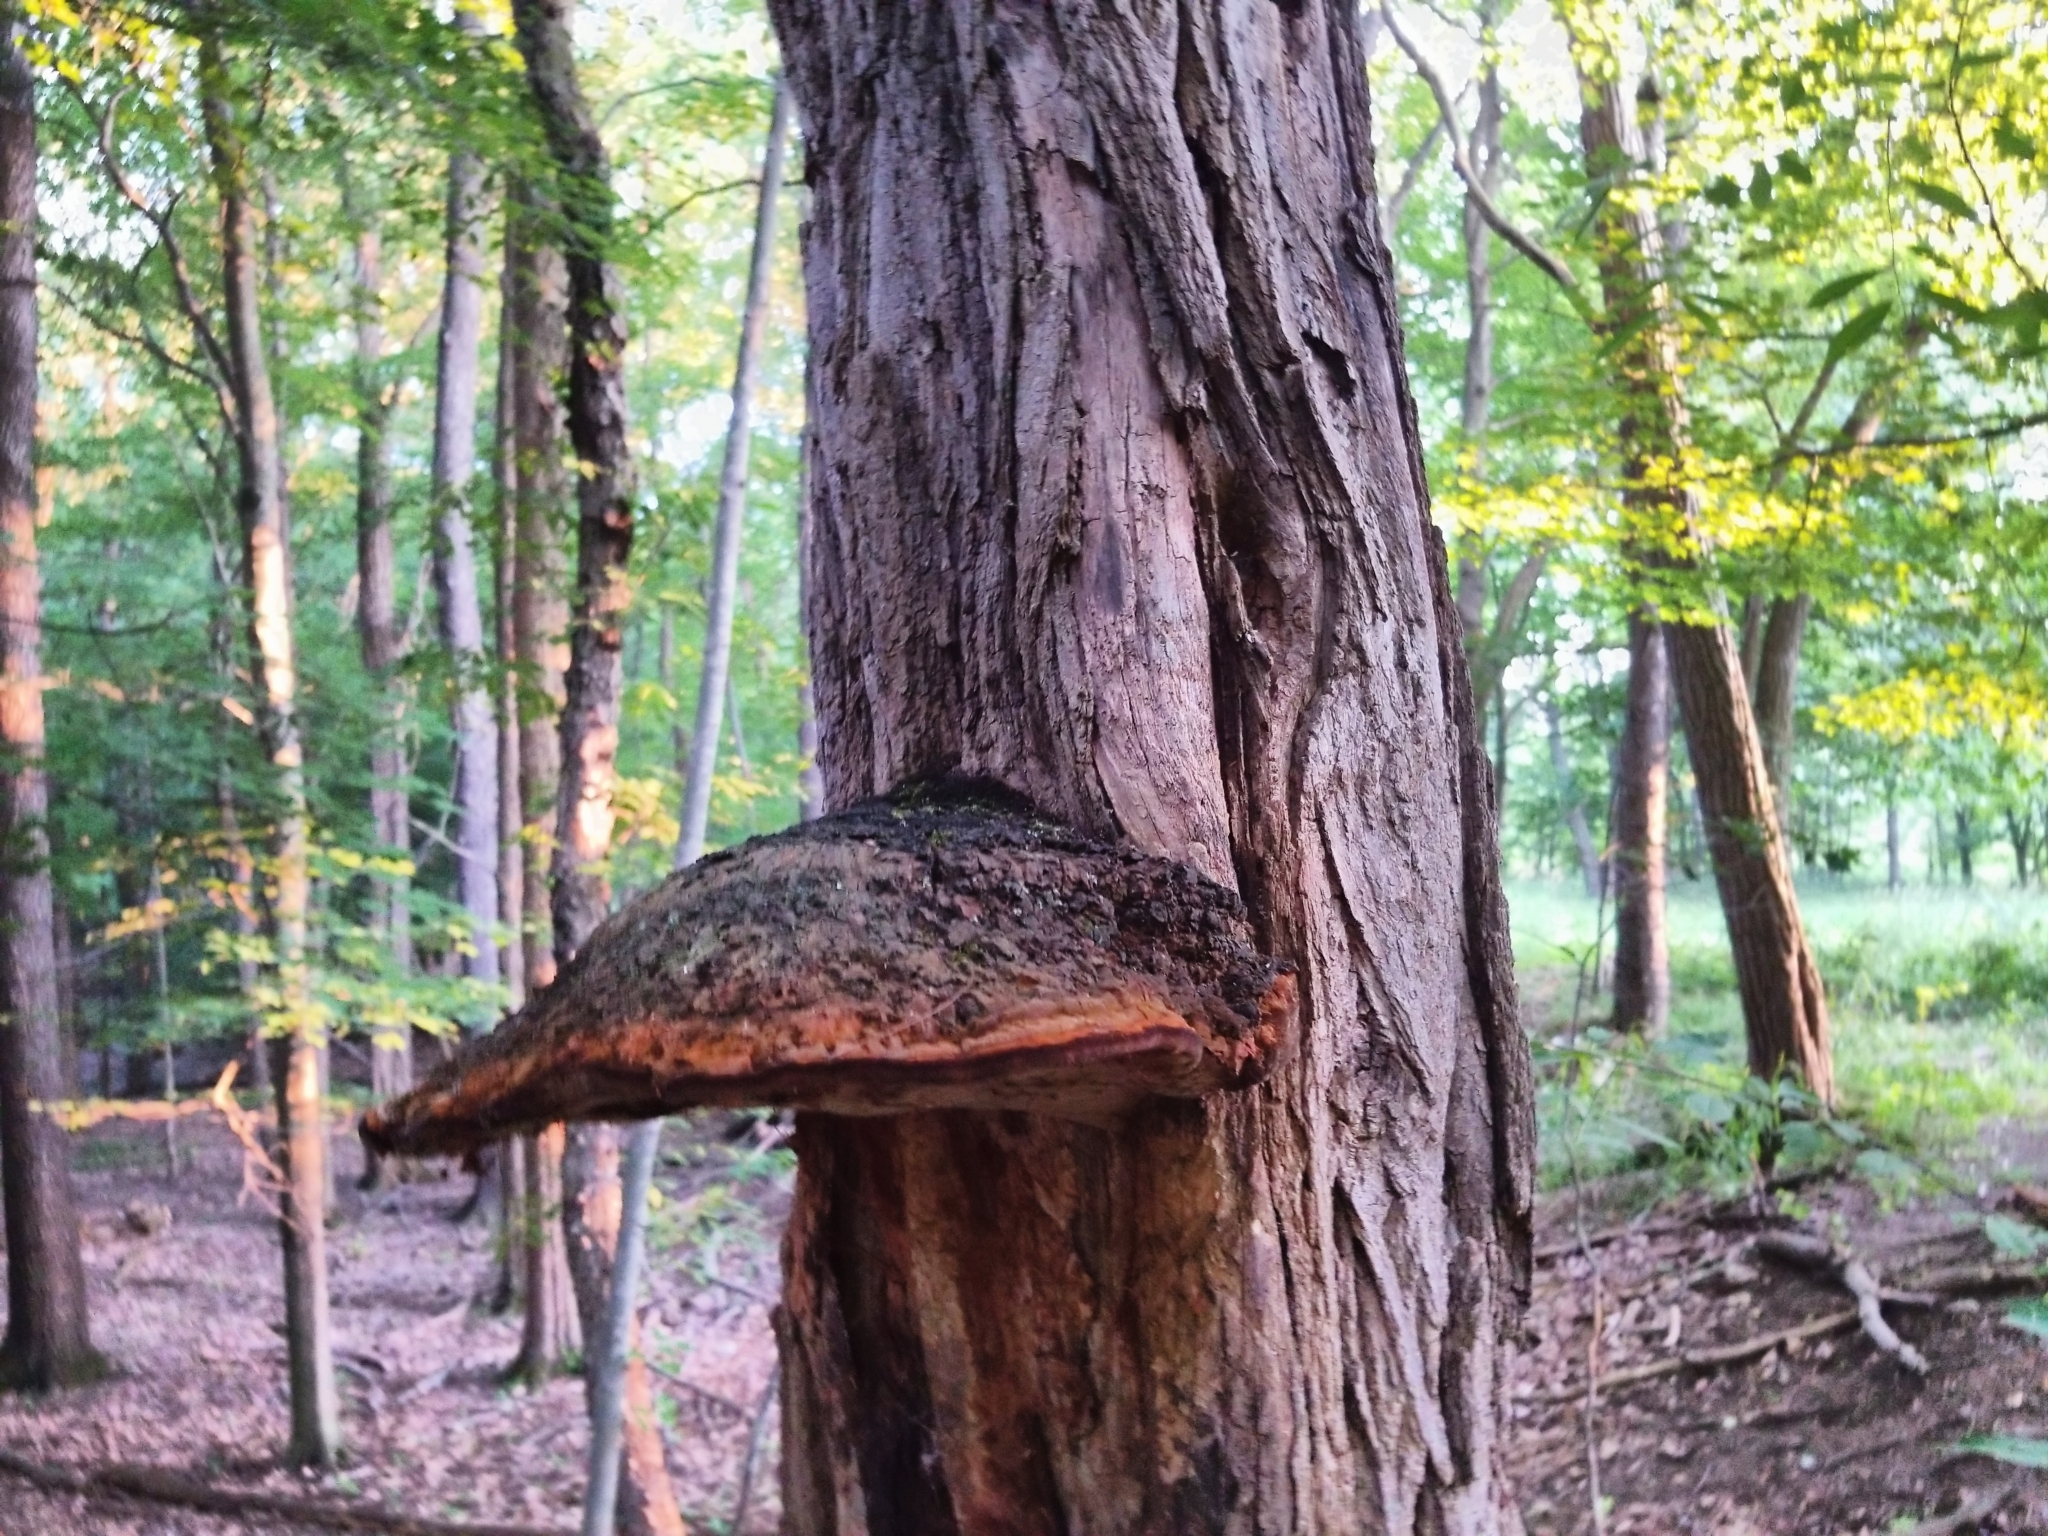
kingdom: Fungi
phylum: Basidiomycota
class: Agaricomycetes
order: Hymenochaetales
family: Hymenochaetaceae
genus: Phellinus
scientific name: Phellinus robiniae
